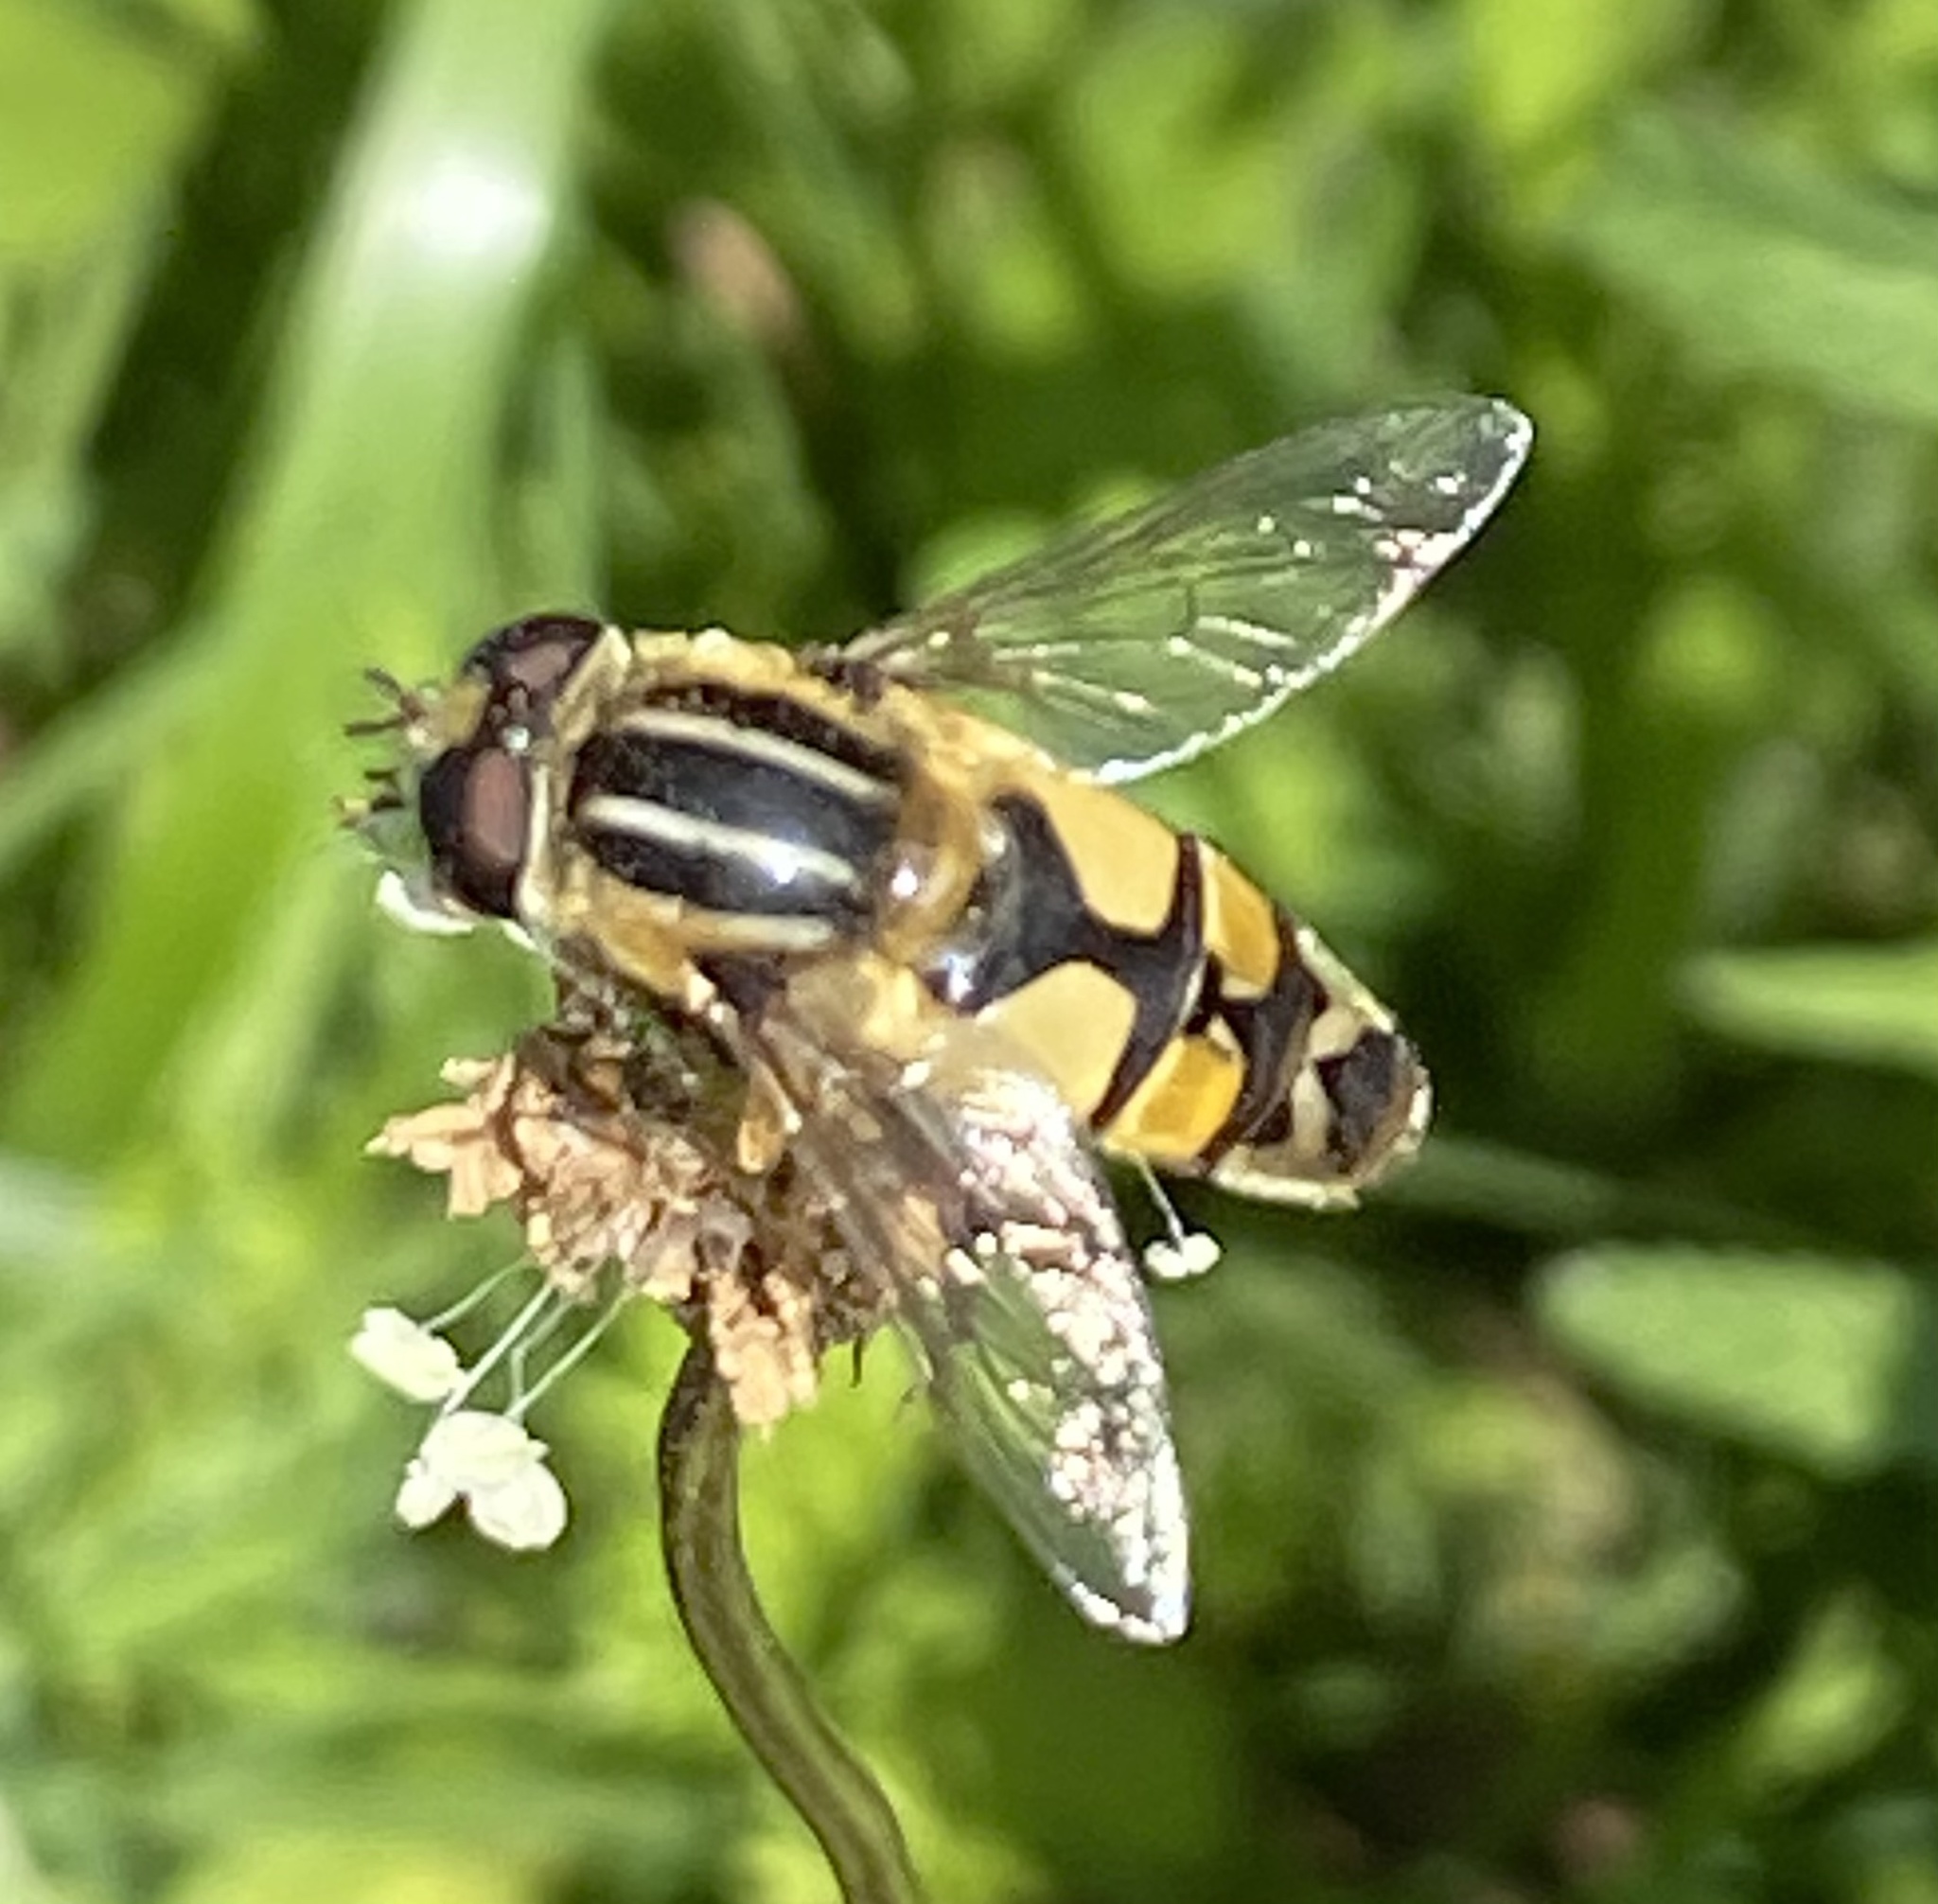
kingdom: Animalia
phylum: Arthropoda
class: Insecta
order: Diptera
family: Syrphidae
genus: Helophilus
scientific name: Helophilus trivittatus
